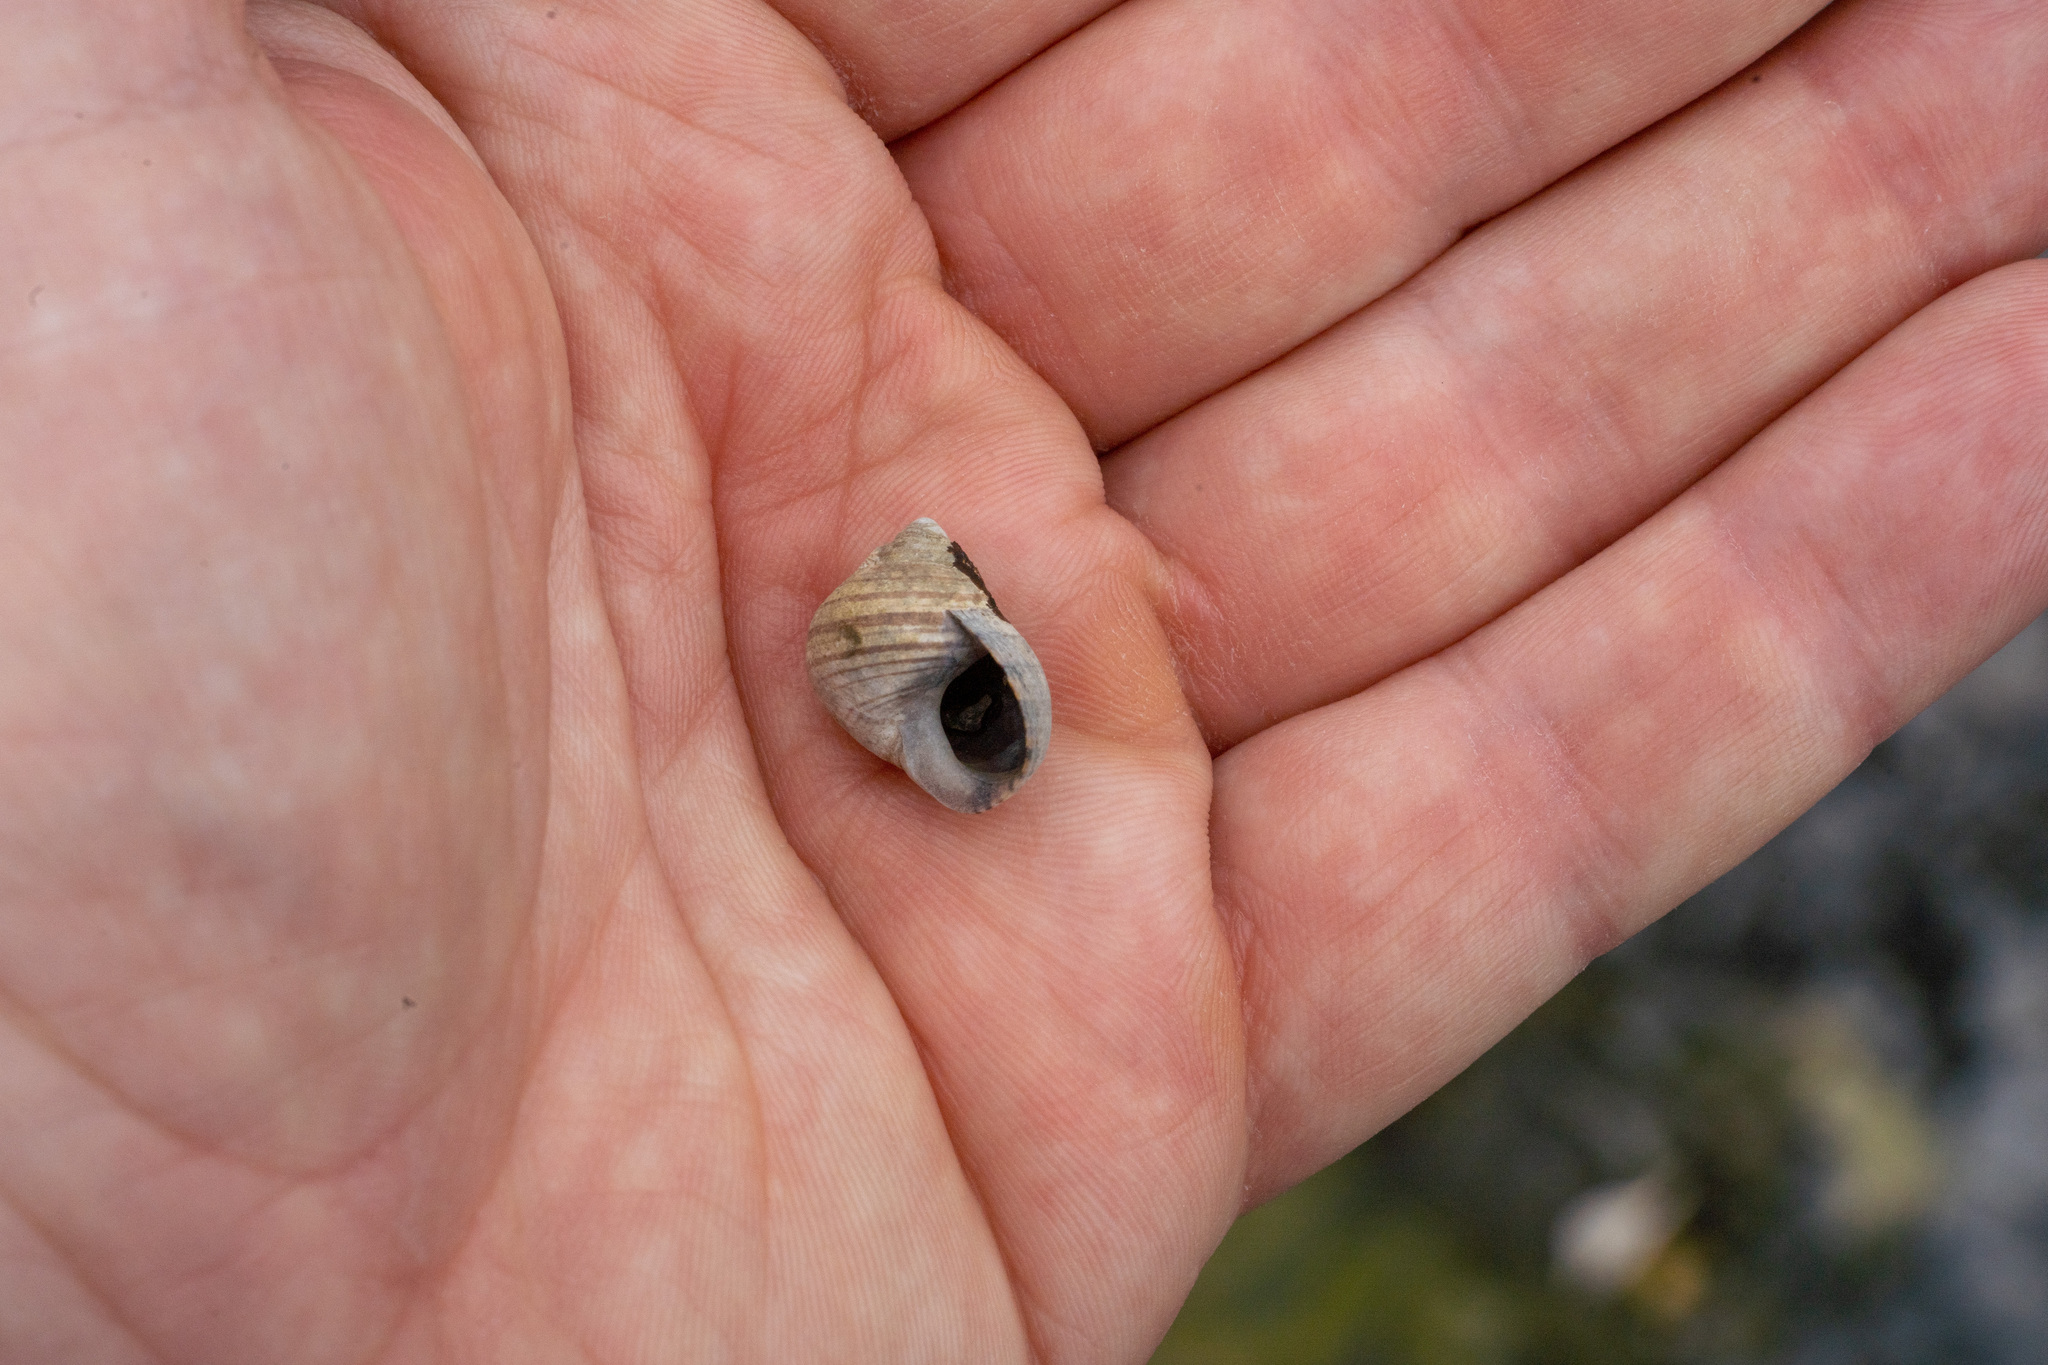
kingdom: Animalia
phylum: Mollusca
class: Gastropoda
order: Littorinimorpha
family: Littorinidae
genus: Littorina
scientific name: Littorina littorea
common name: Common periwinkle
